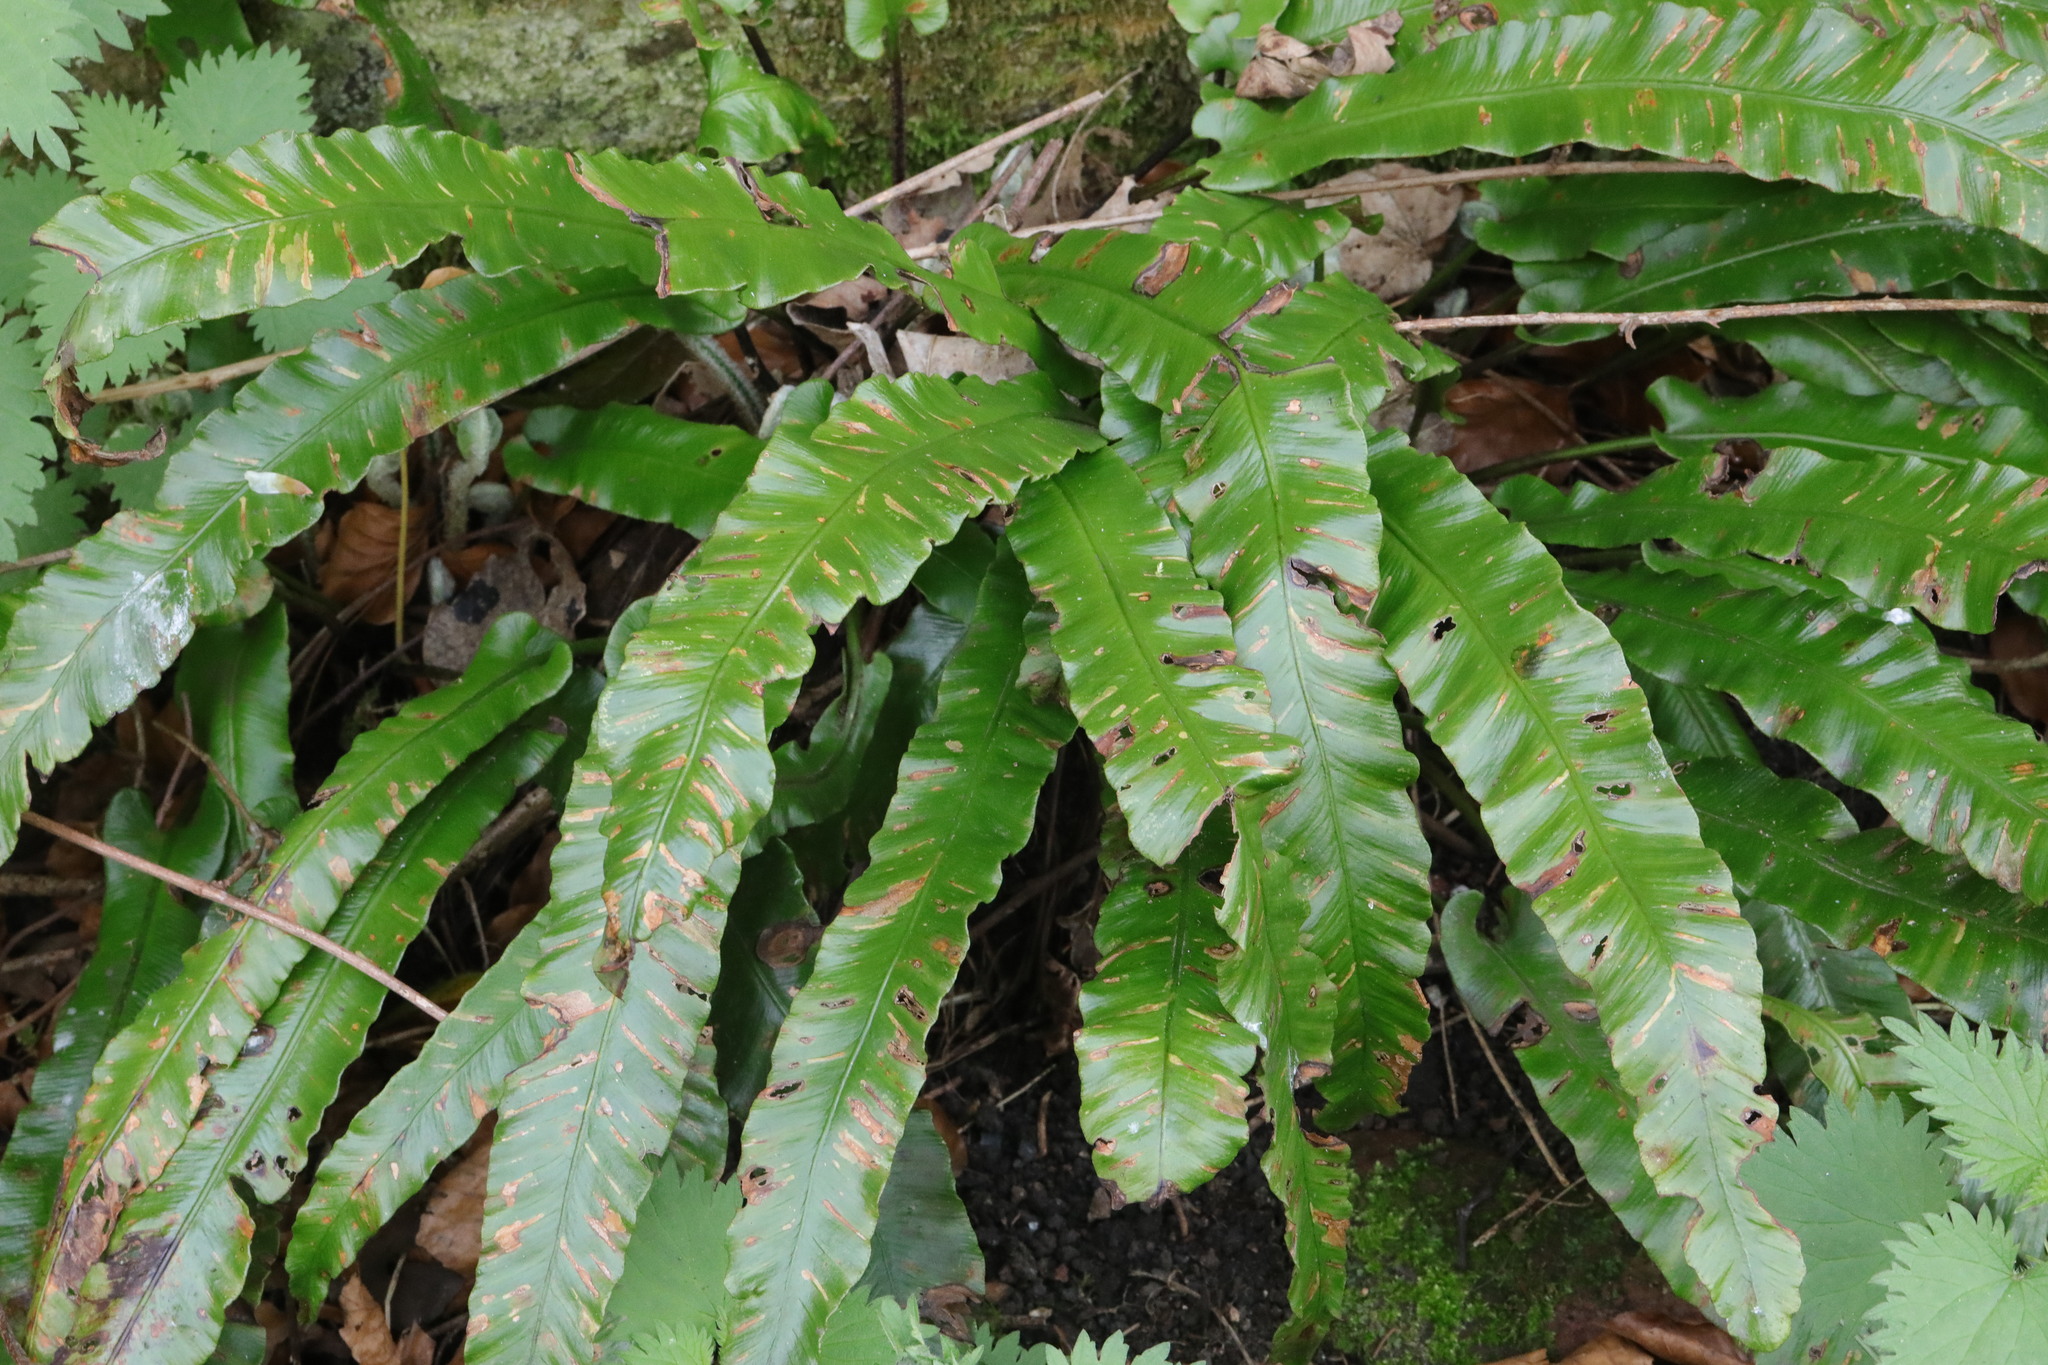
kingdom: Plantae
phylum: Tracheophyta
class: Polypodiopsida
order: Polypodiales
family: Aspleniaceae
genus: Asplenium
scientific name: Asplenium scolopendrium
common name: Hart's-tongue fern
